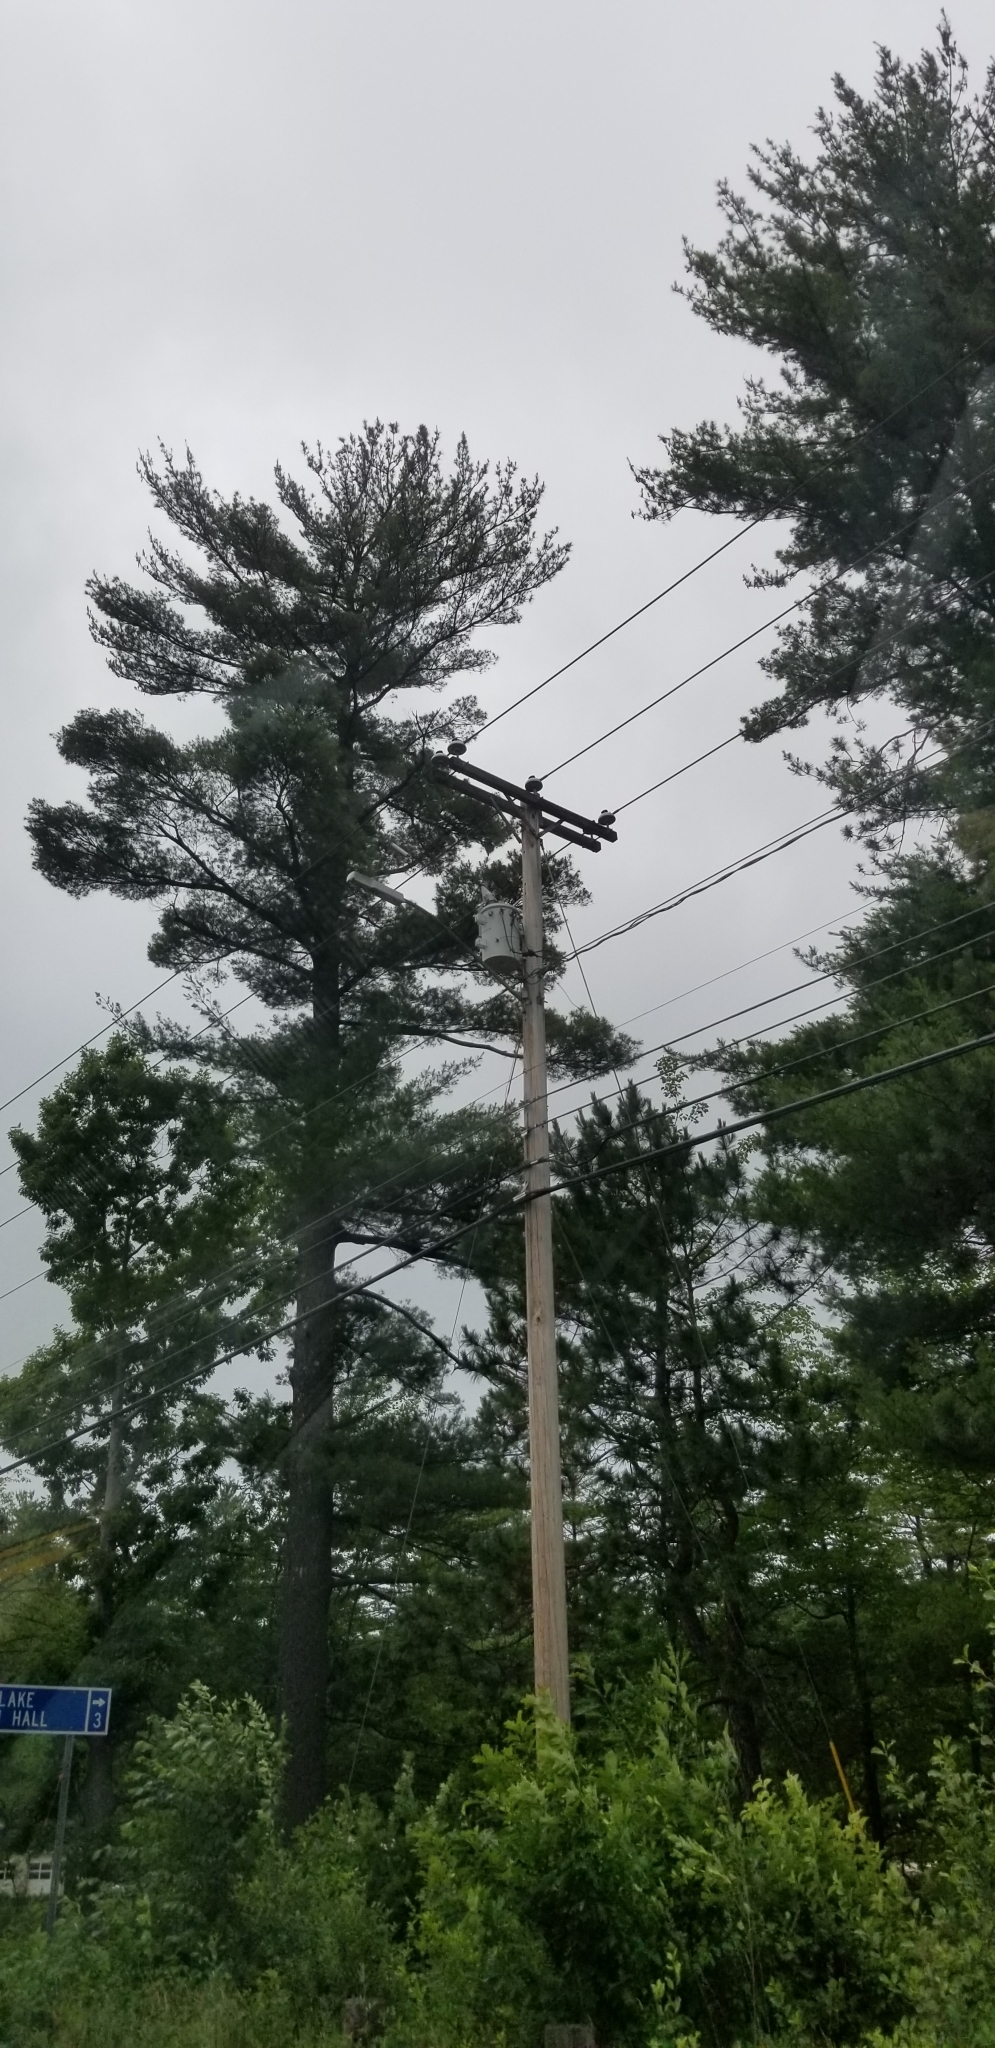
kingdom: Plantae
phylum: Tracheophyta
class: Pinopsida
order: Pinales
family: Pinaceae
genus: Pinus
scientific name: Pinus strobus
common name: Weymouth pine
